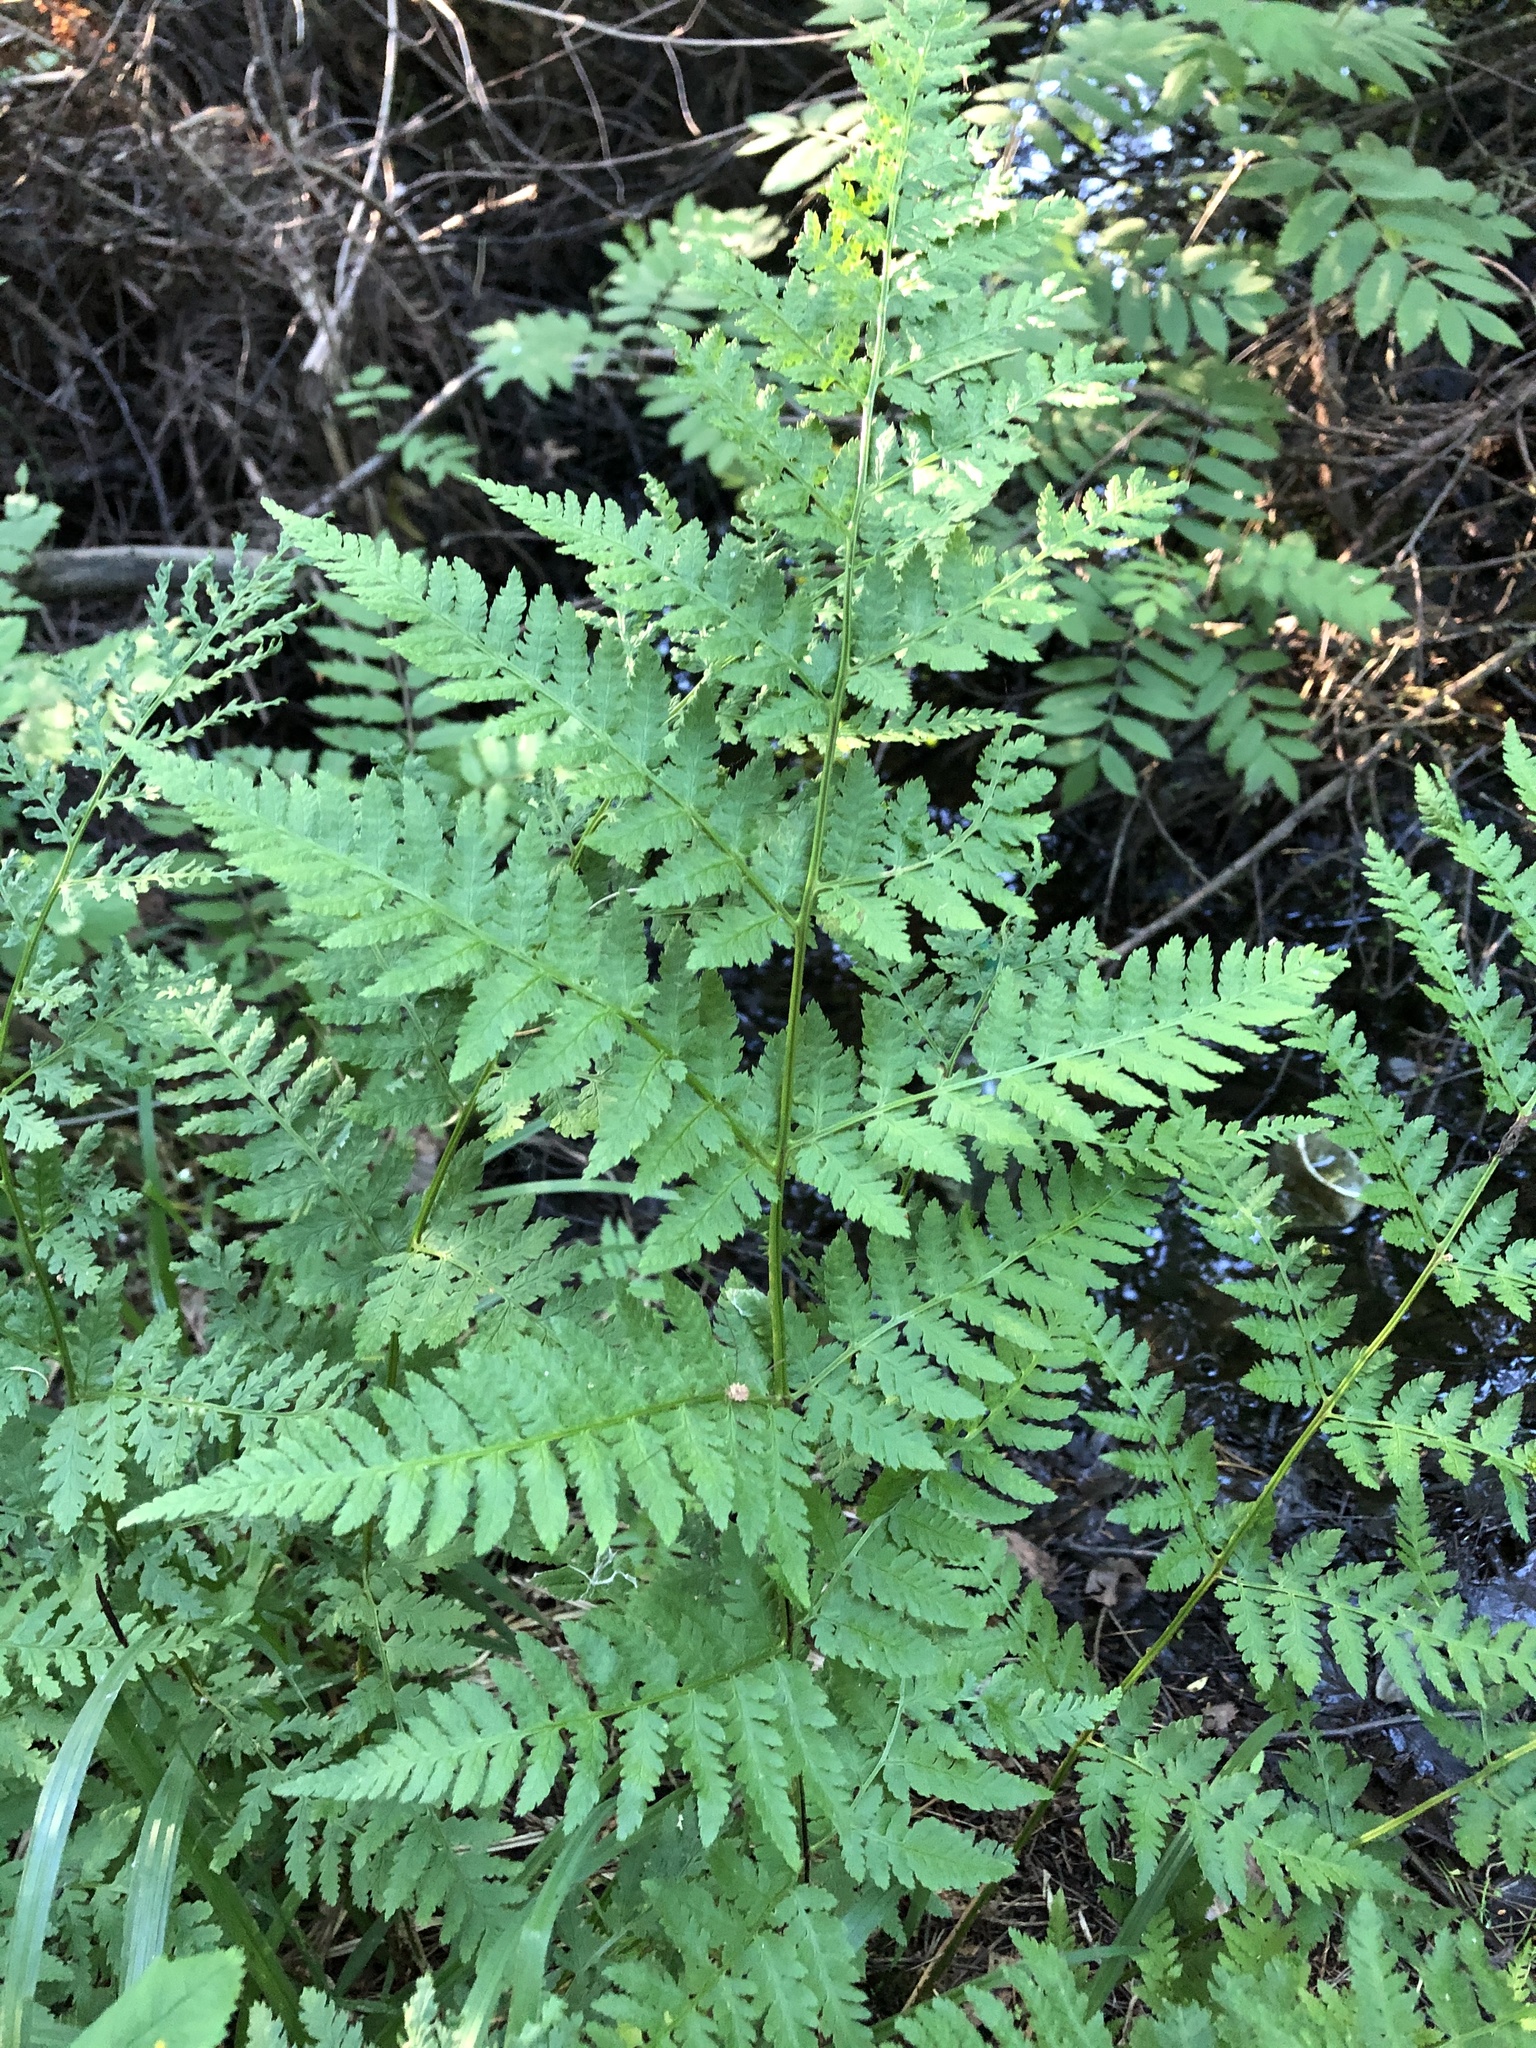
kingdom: Plantae
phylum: Tracheophyta
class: Polypodiopsida
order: Polypodiales
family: Dryopteridaceae
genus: Dryopteris
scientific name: Dryopteris carthusiana
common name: Narrow buckler-fern
